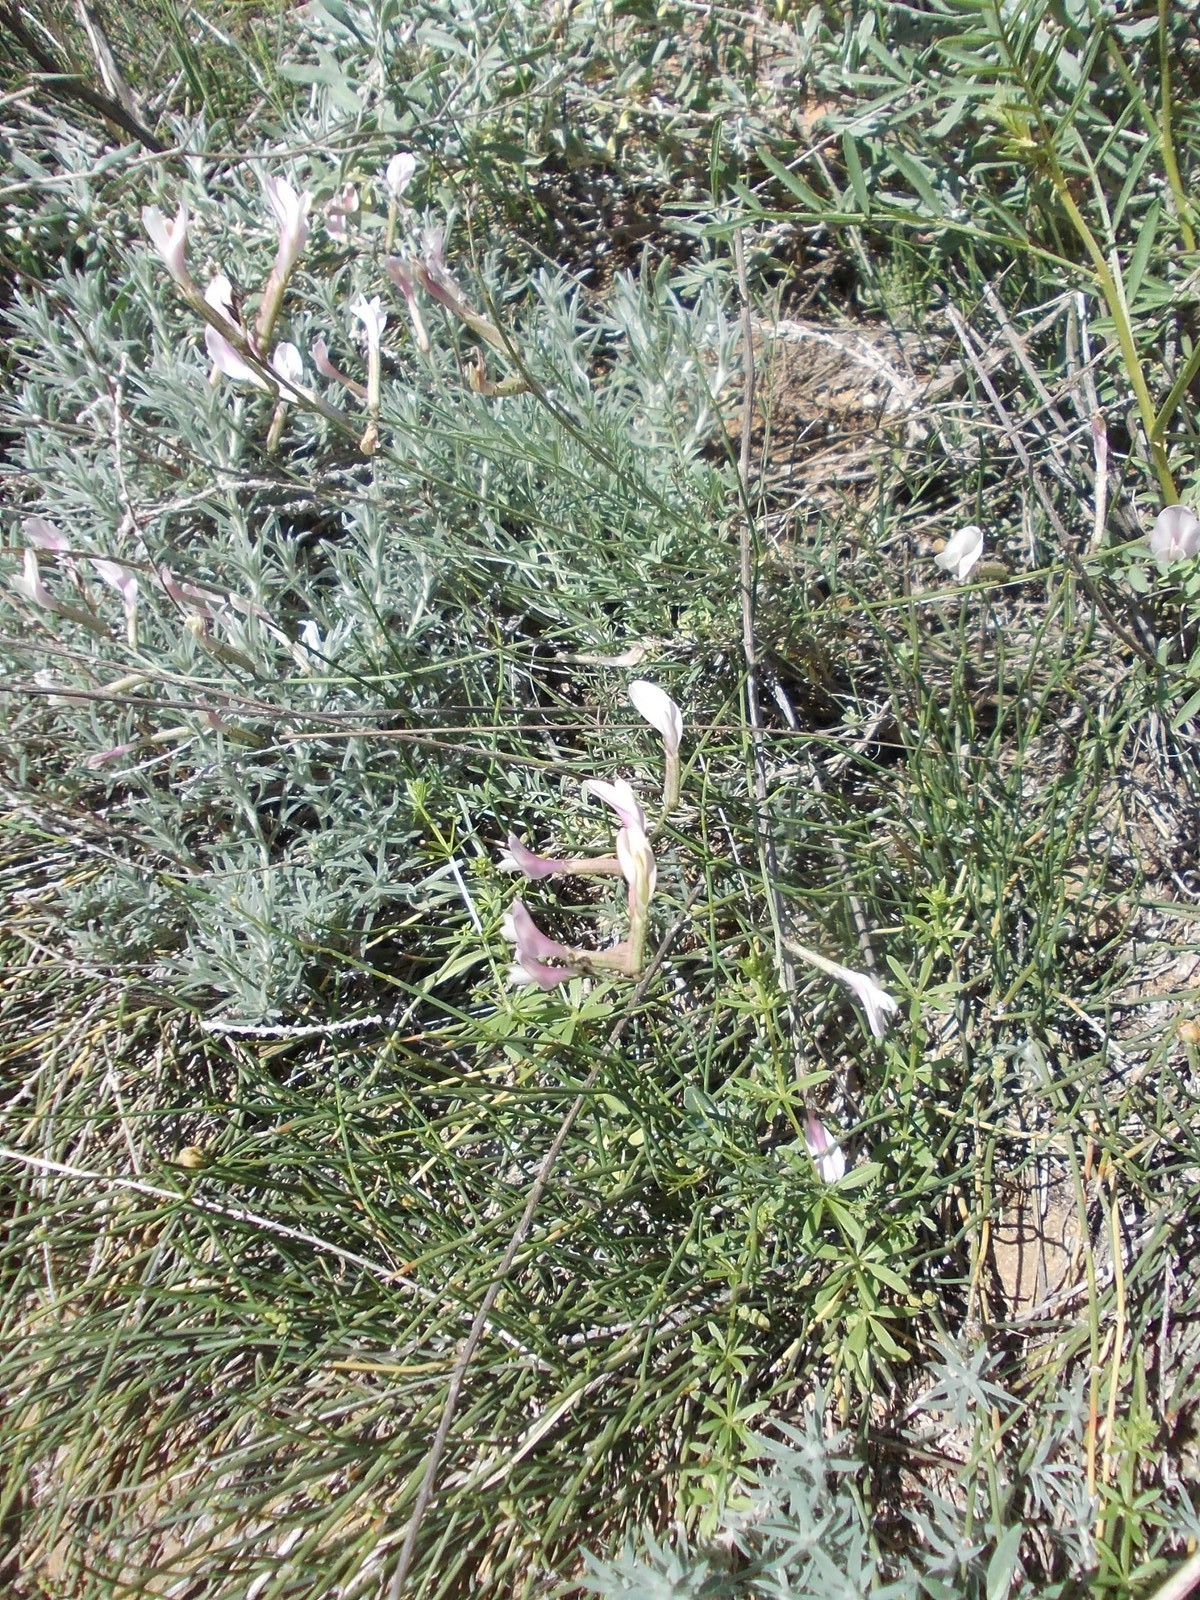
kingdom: Plantae
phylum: Tracheophyta
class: Magnoliopsida
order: Fabales
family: Fabaceae
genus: Astragalus
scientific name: Astragalus pseudotataricus
